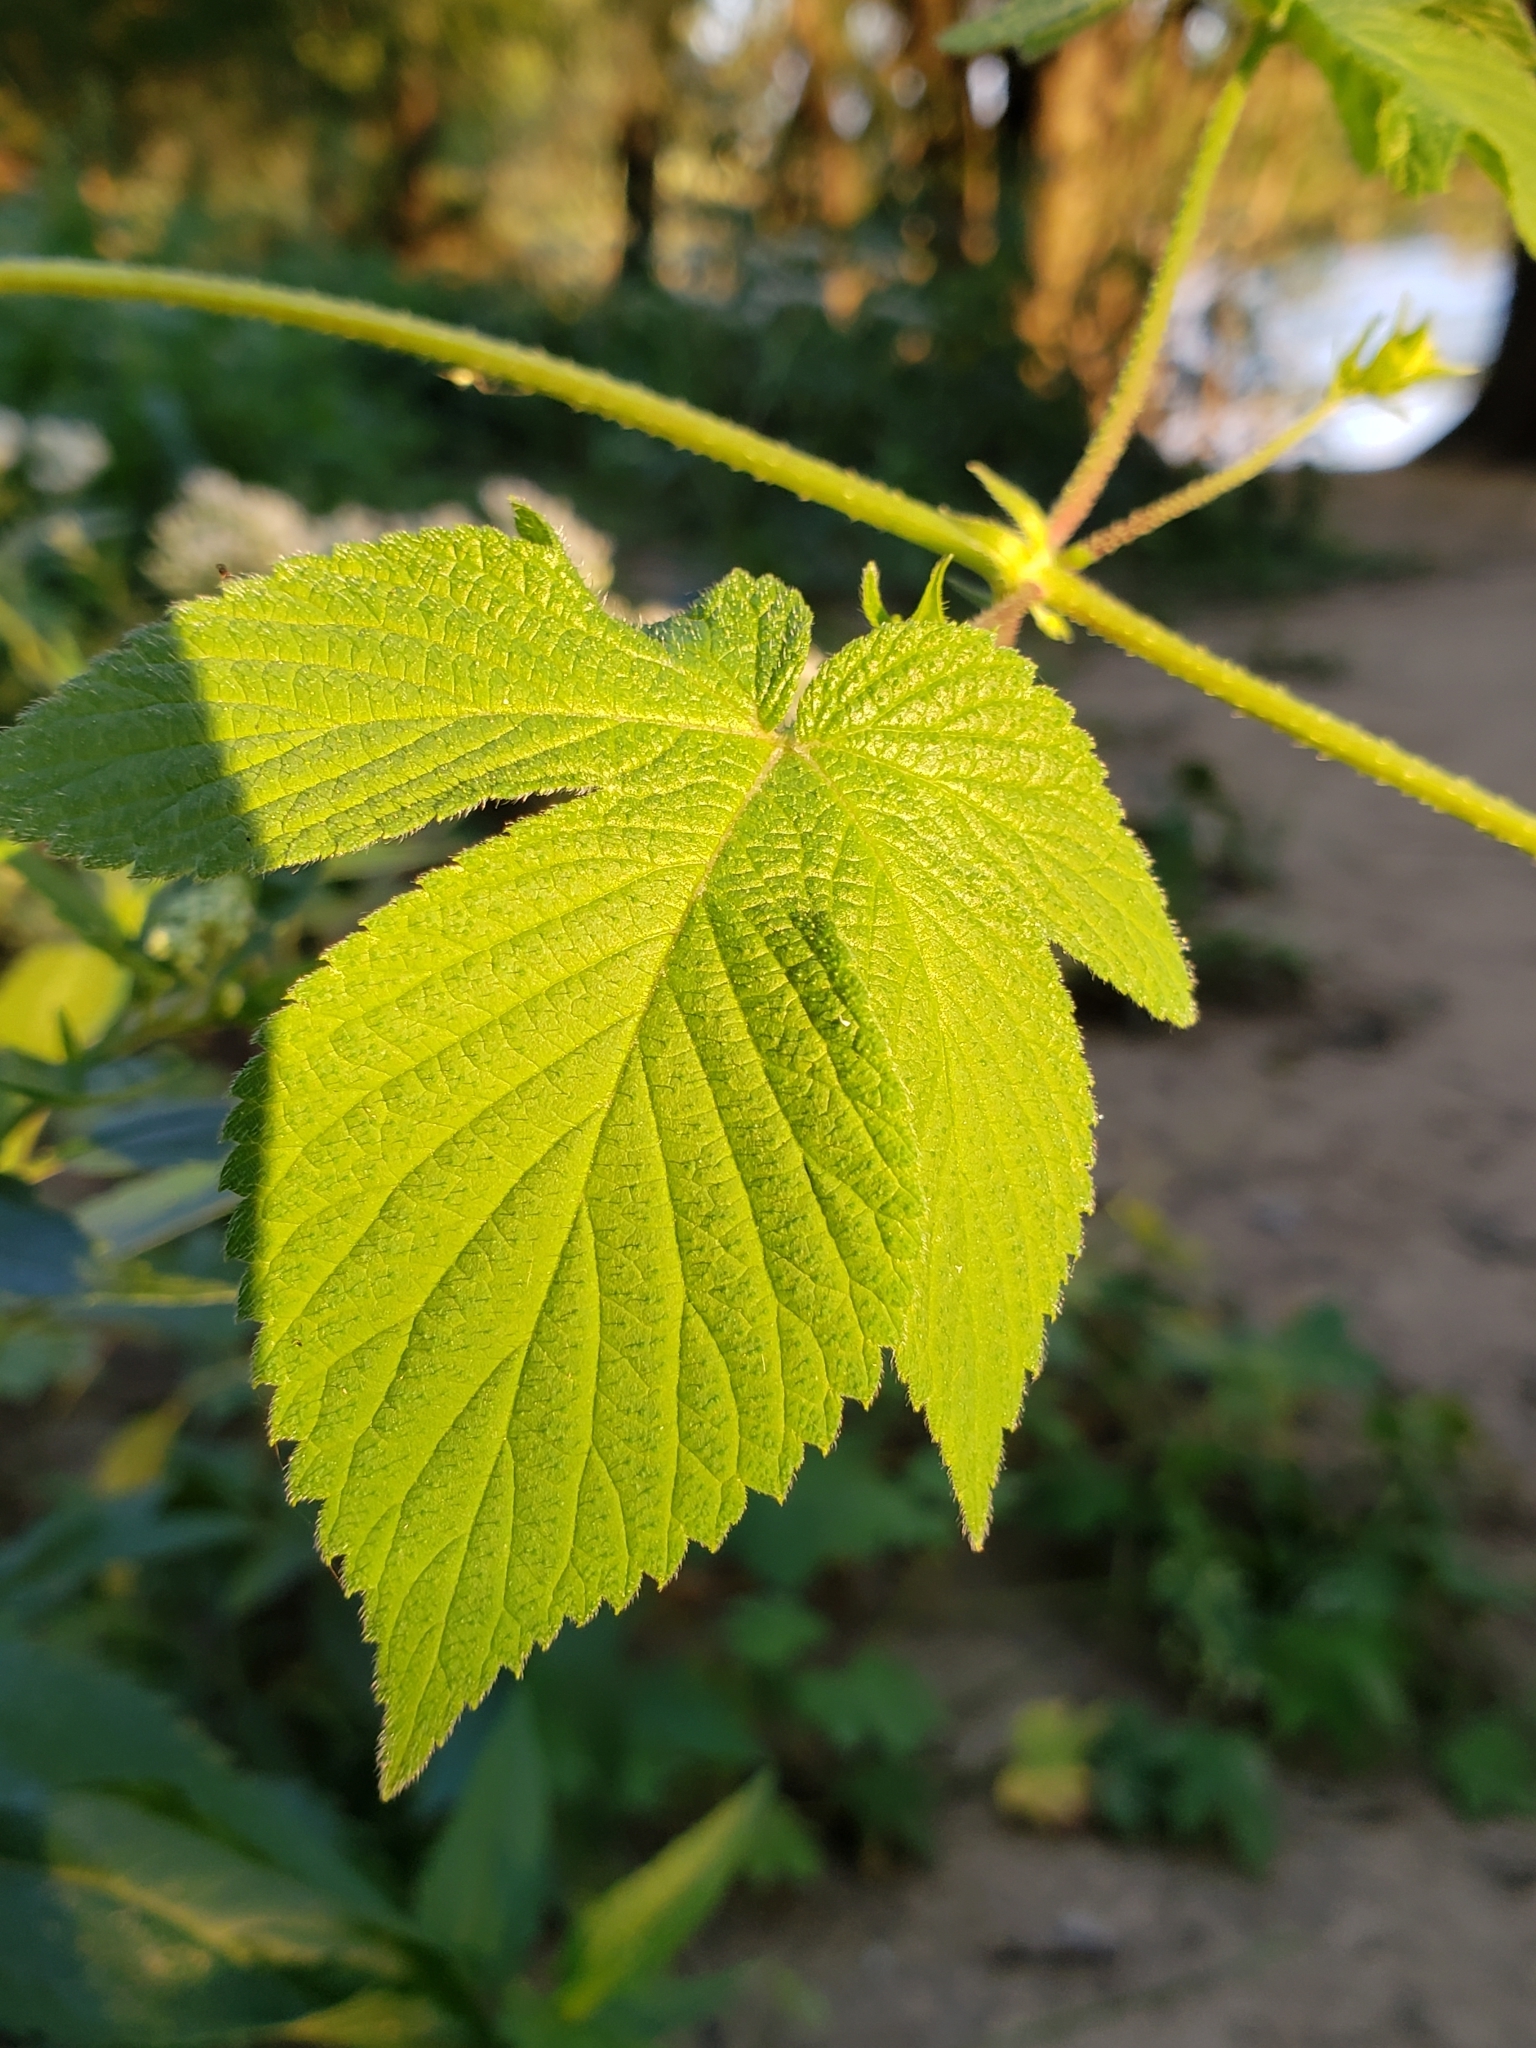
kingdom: Plantae
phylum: Tracheophyta
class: Magnoliopsida
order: Rosales
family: Cannabaceae
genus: Humulus
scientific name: Humulus scandens
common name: Japanese hop
